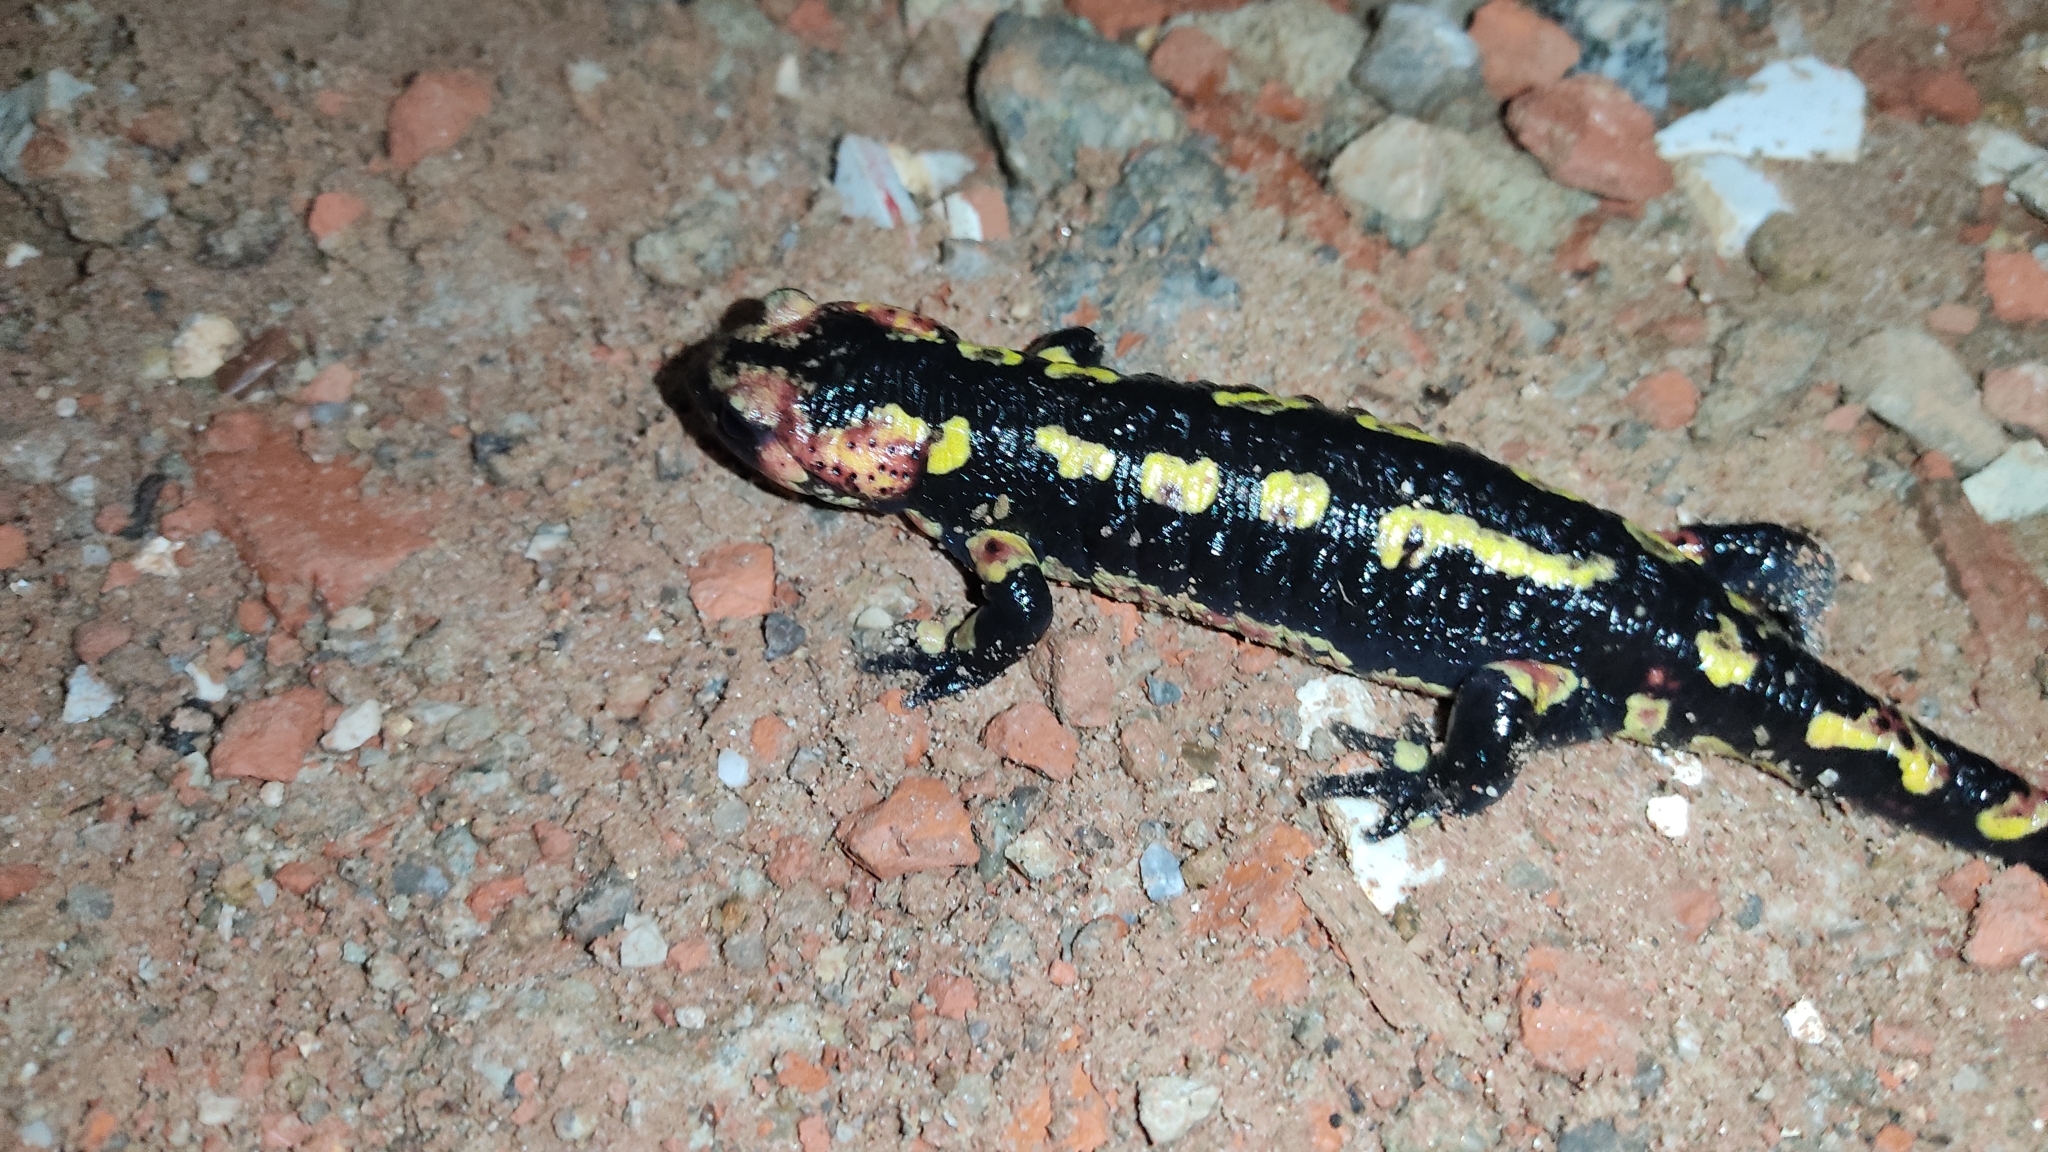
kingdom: Animalia
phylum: Chordata
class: Amphibia
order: Caudata
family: Salamandridae
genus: Salamandra
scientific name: Salamandra salamandra
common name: Fire salamander
